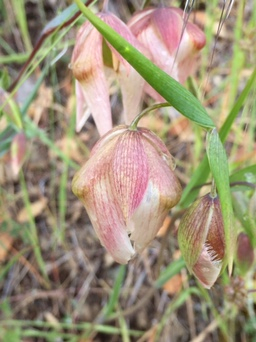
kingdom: Plantae
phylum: Tracheophyta
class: Liliopsida
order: Liliales
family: Liliaceae
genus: Calochortus
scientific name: Calochortus albus
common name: Fairy-lantern
